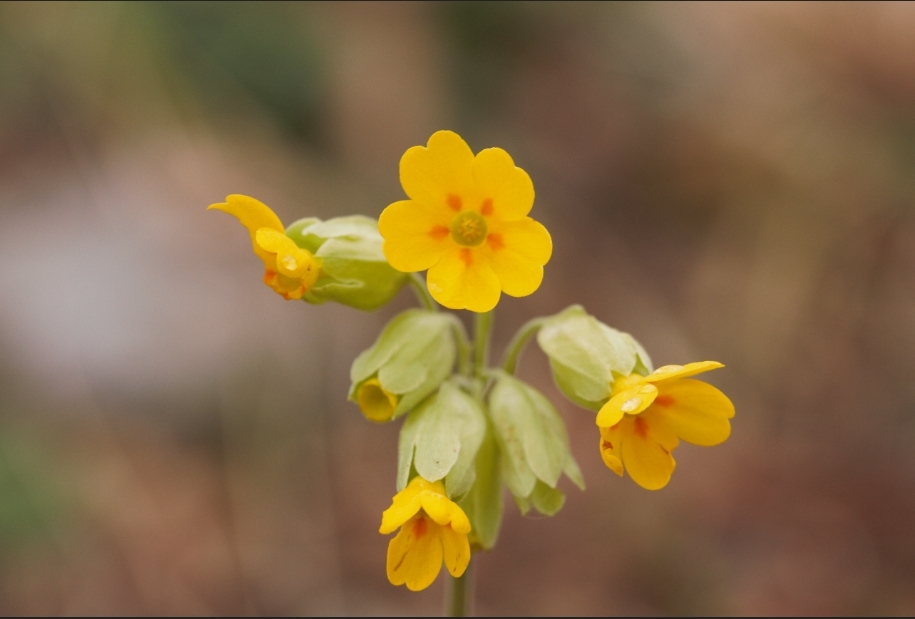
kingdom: Plantae
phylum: Tracheophyta
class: Magnoliopsida
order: Ericales
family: Primulaceae
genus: Primula
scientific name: Primula veris
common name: Cowslip
